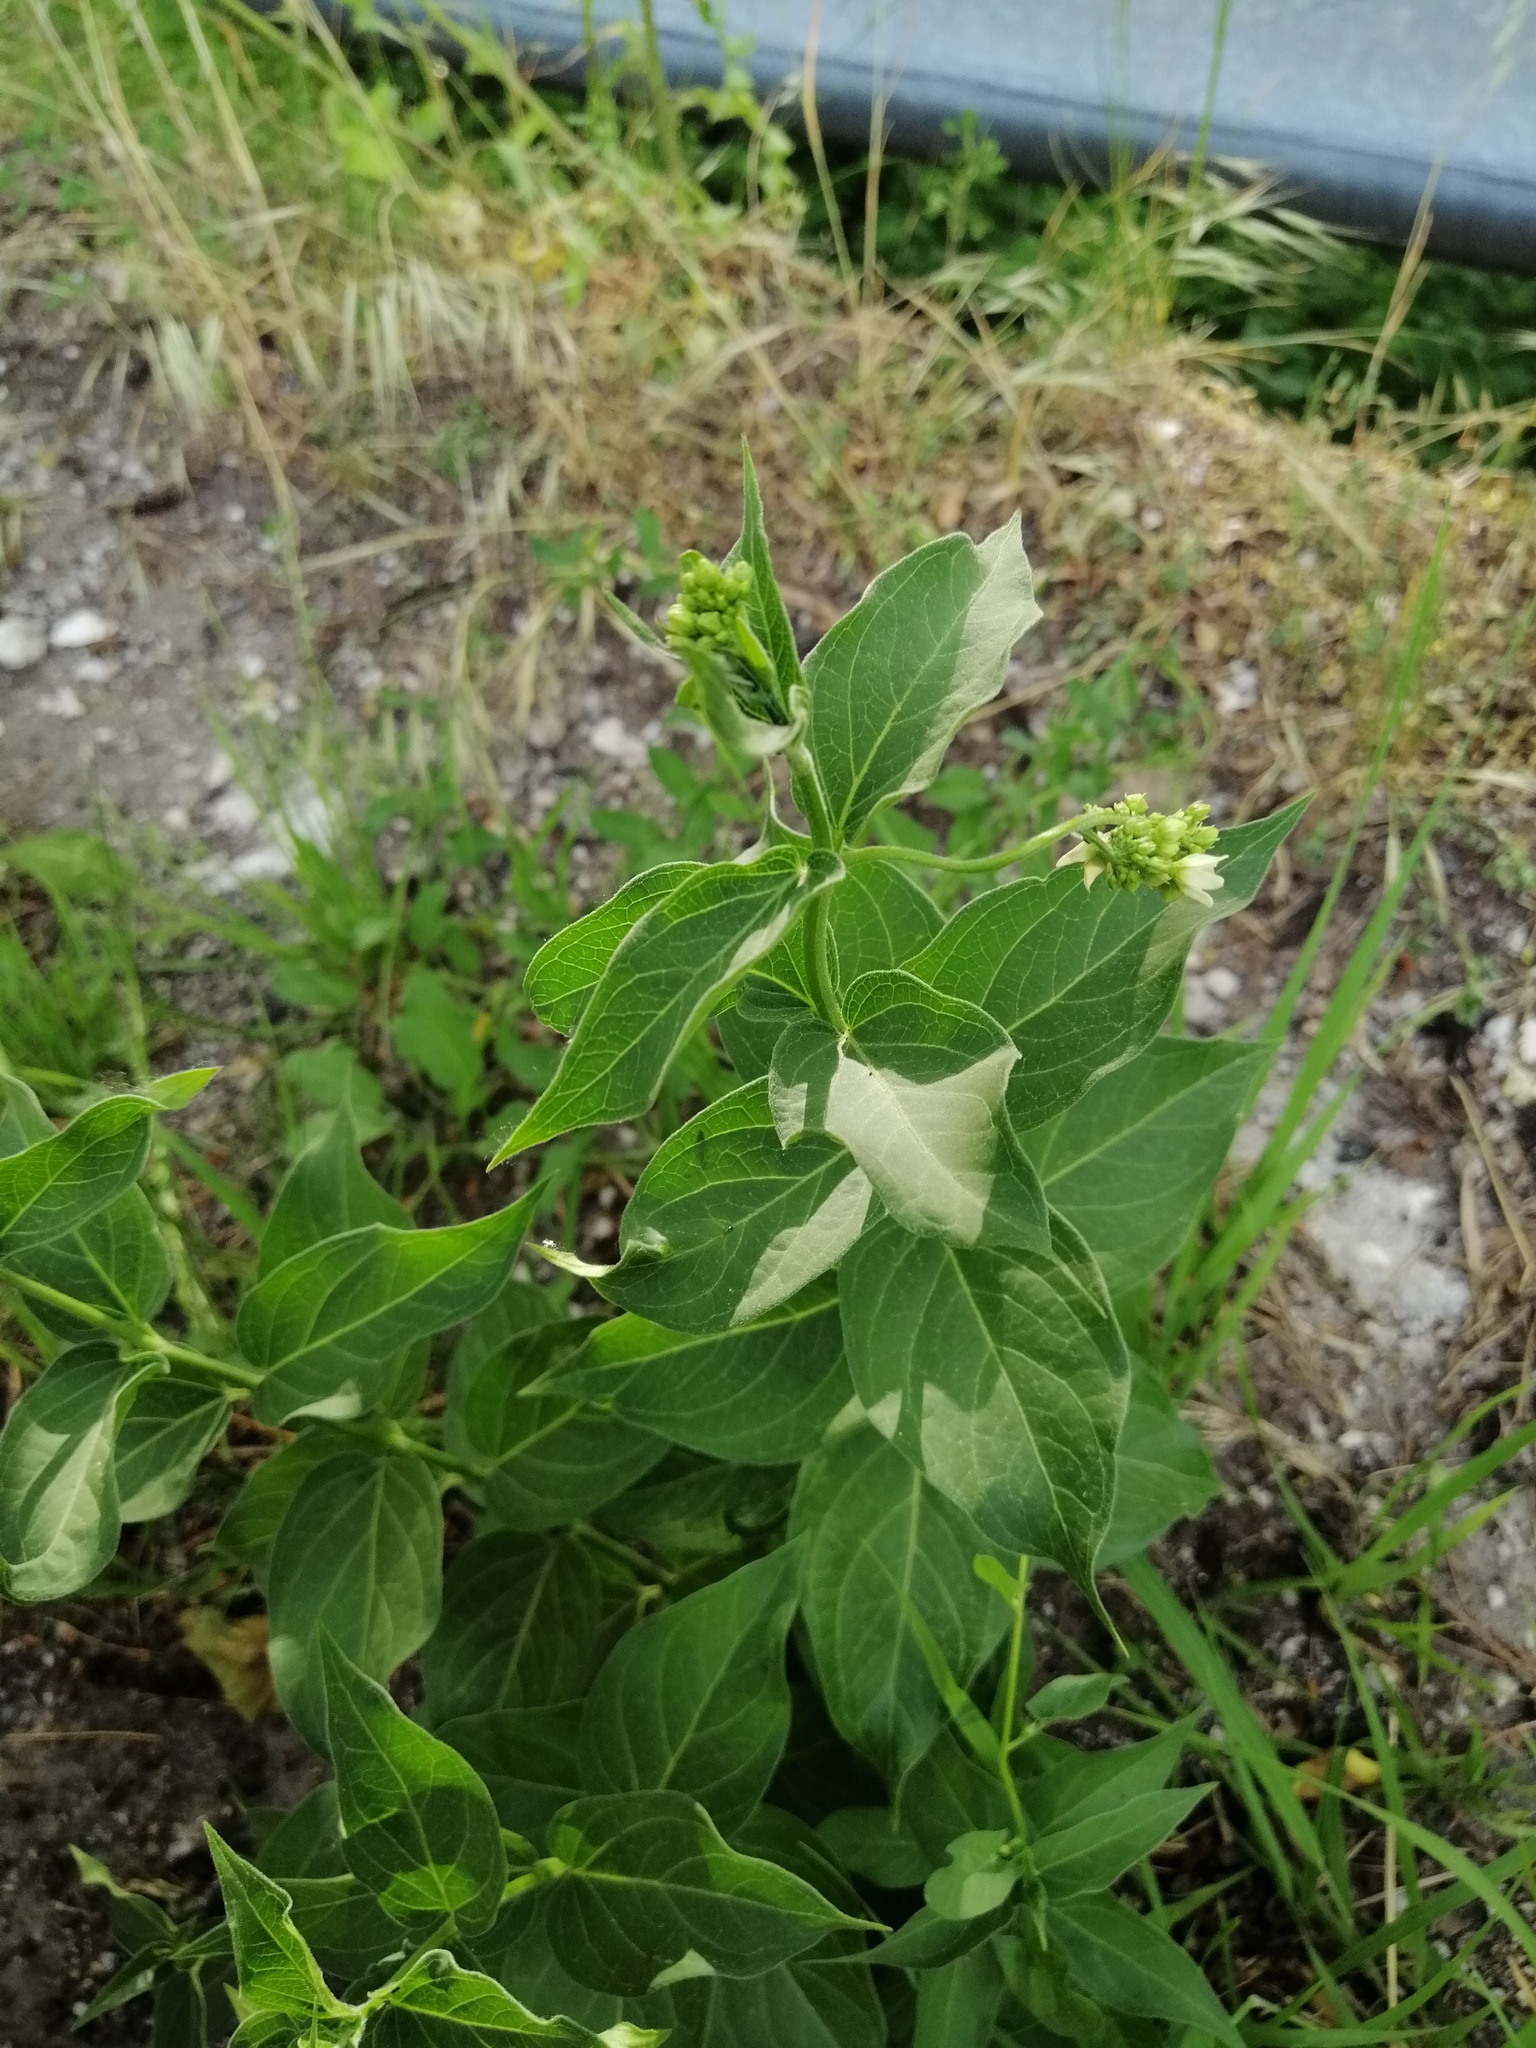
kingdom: Plantae
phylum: Tracheophyta
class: Magnoliopsida
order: Gentianales
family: Apocynaceae
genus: Vincetoxicum
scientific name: Vincetoxicum hirundinaria
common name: White swallowwort
